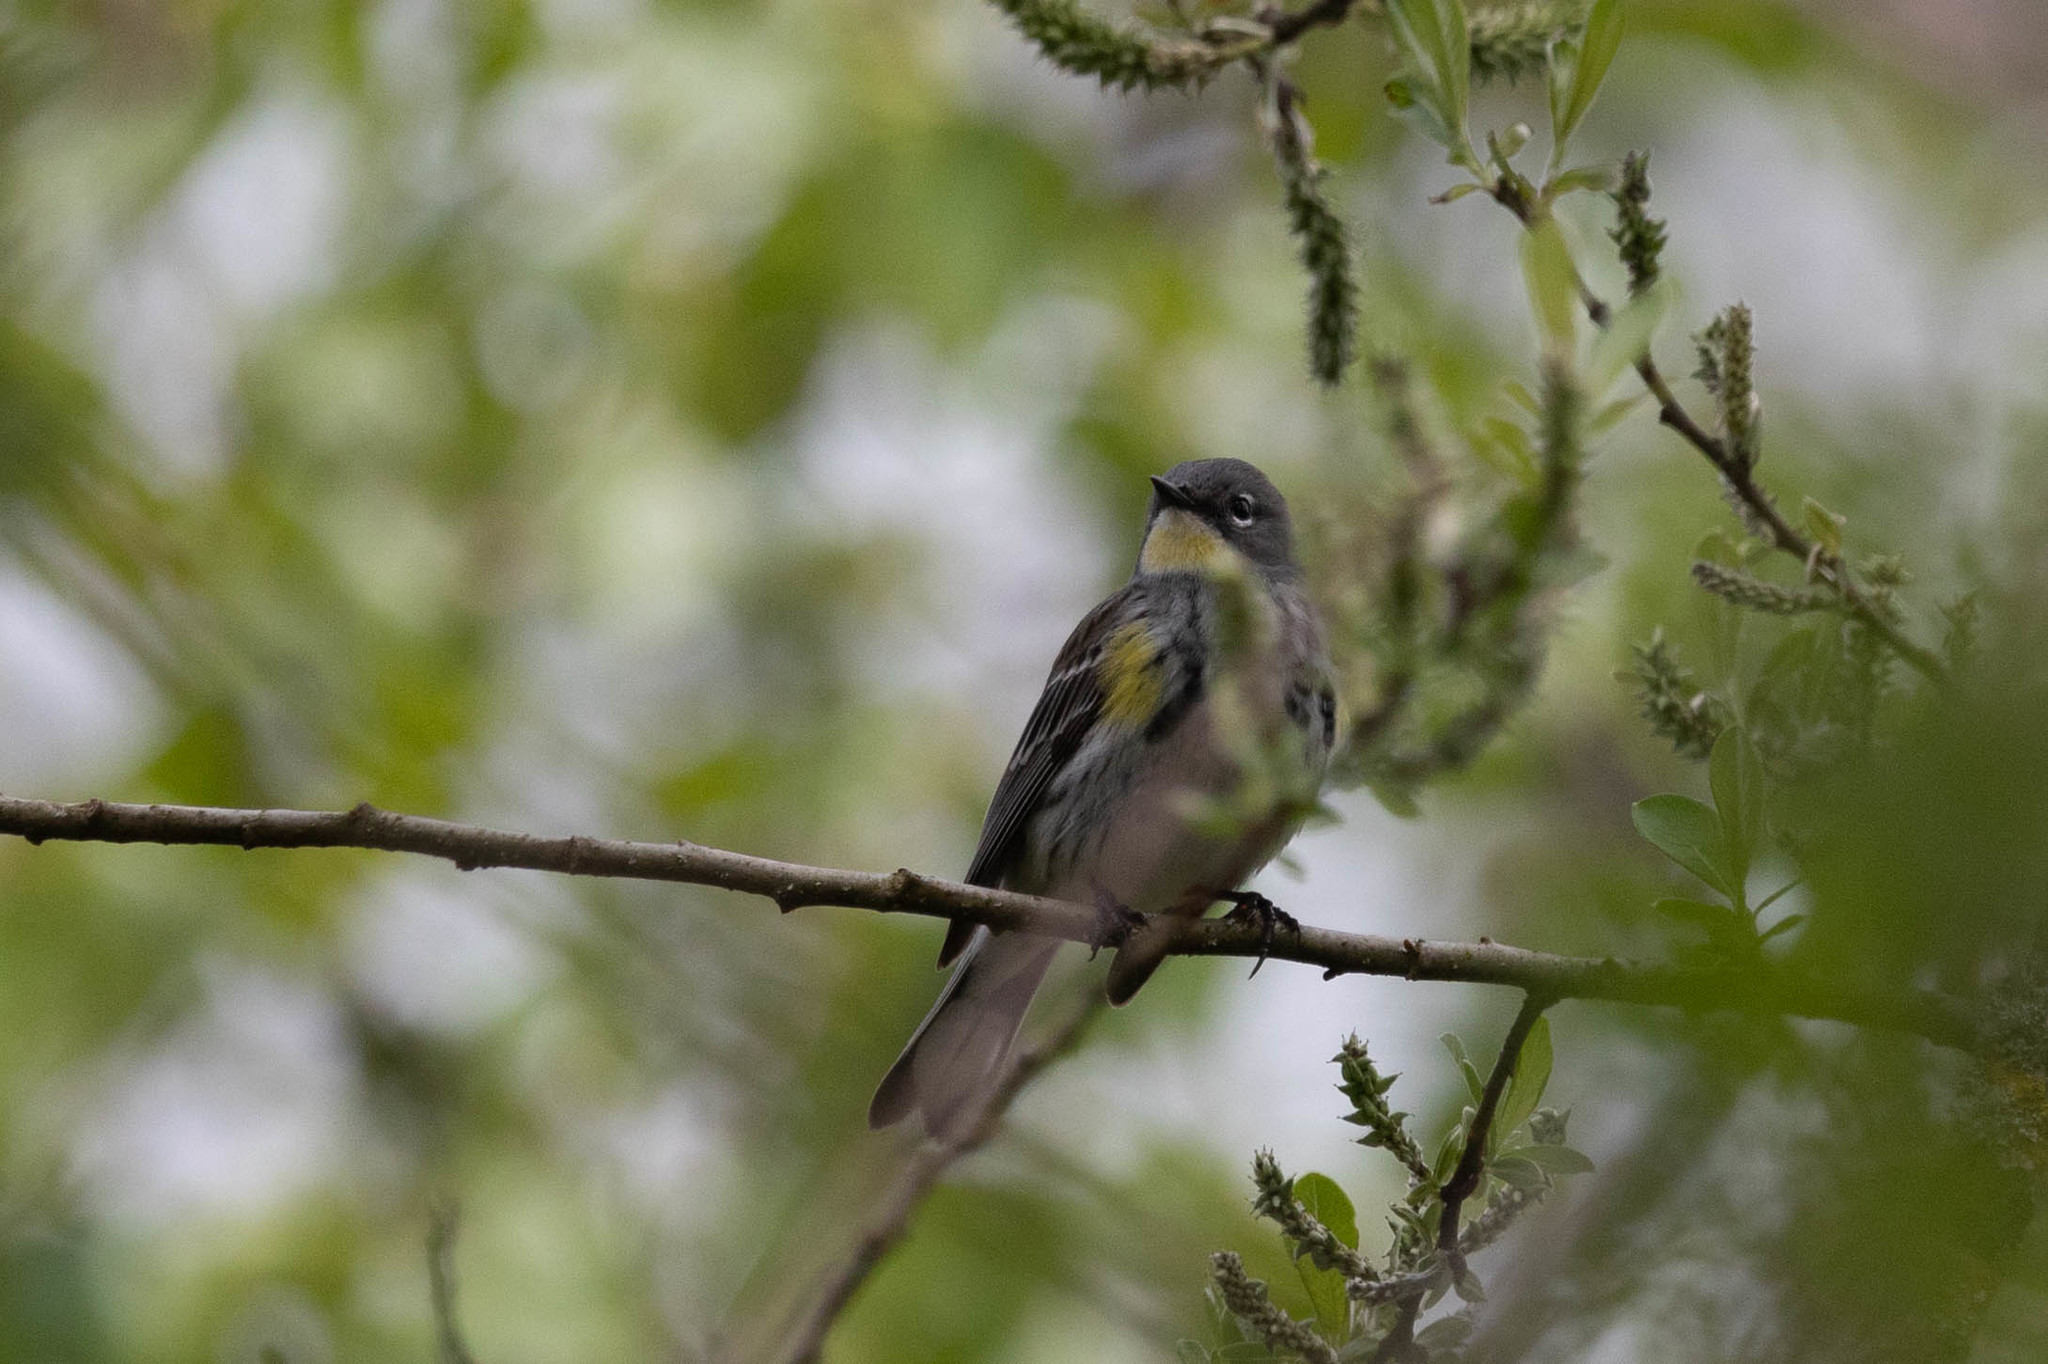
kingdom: Animalia
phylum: Chordata
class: Aves
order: Passeriformes
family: Parulidae
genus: Setophaga
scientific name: Setophaga
